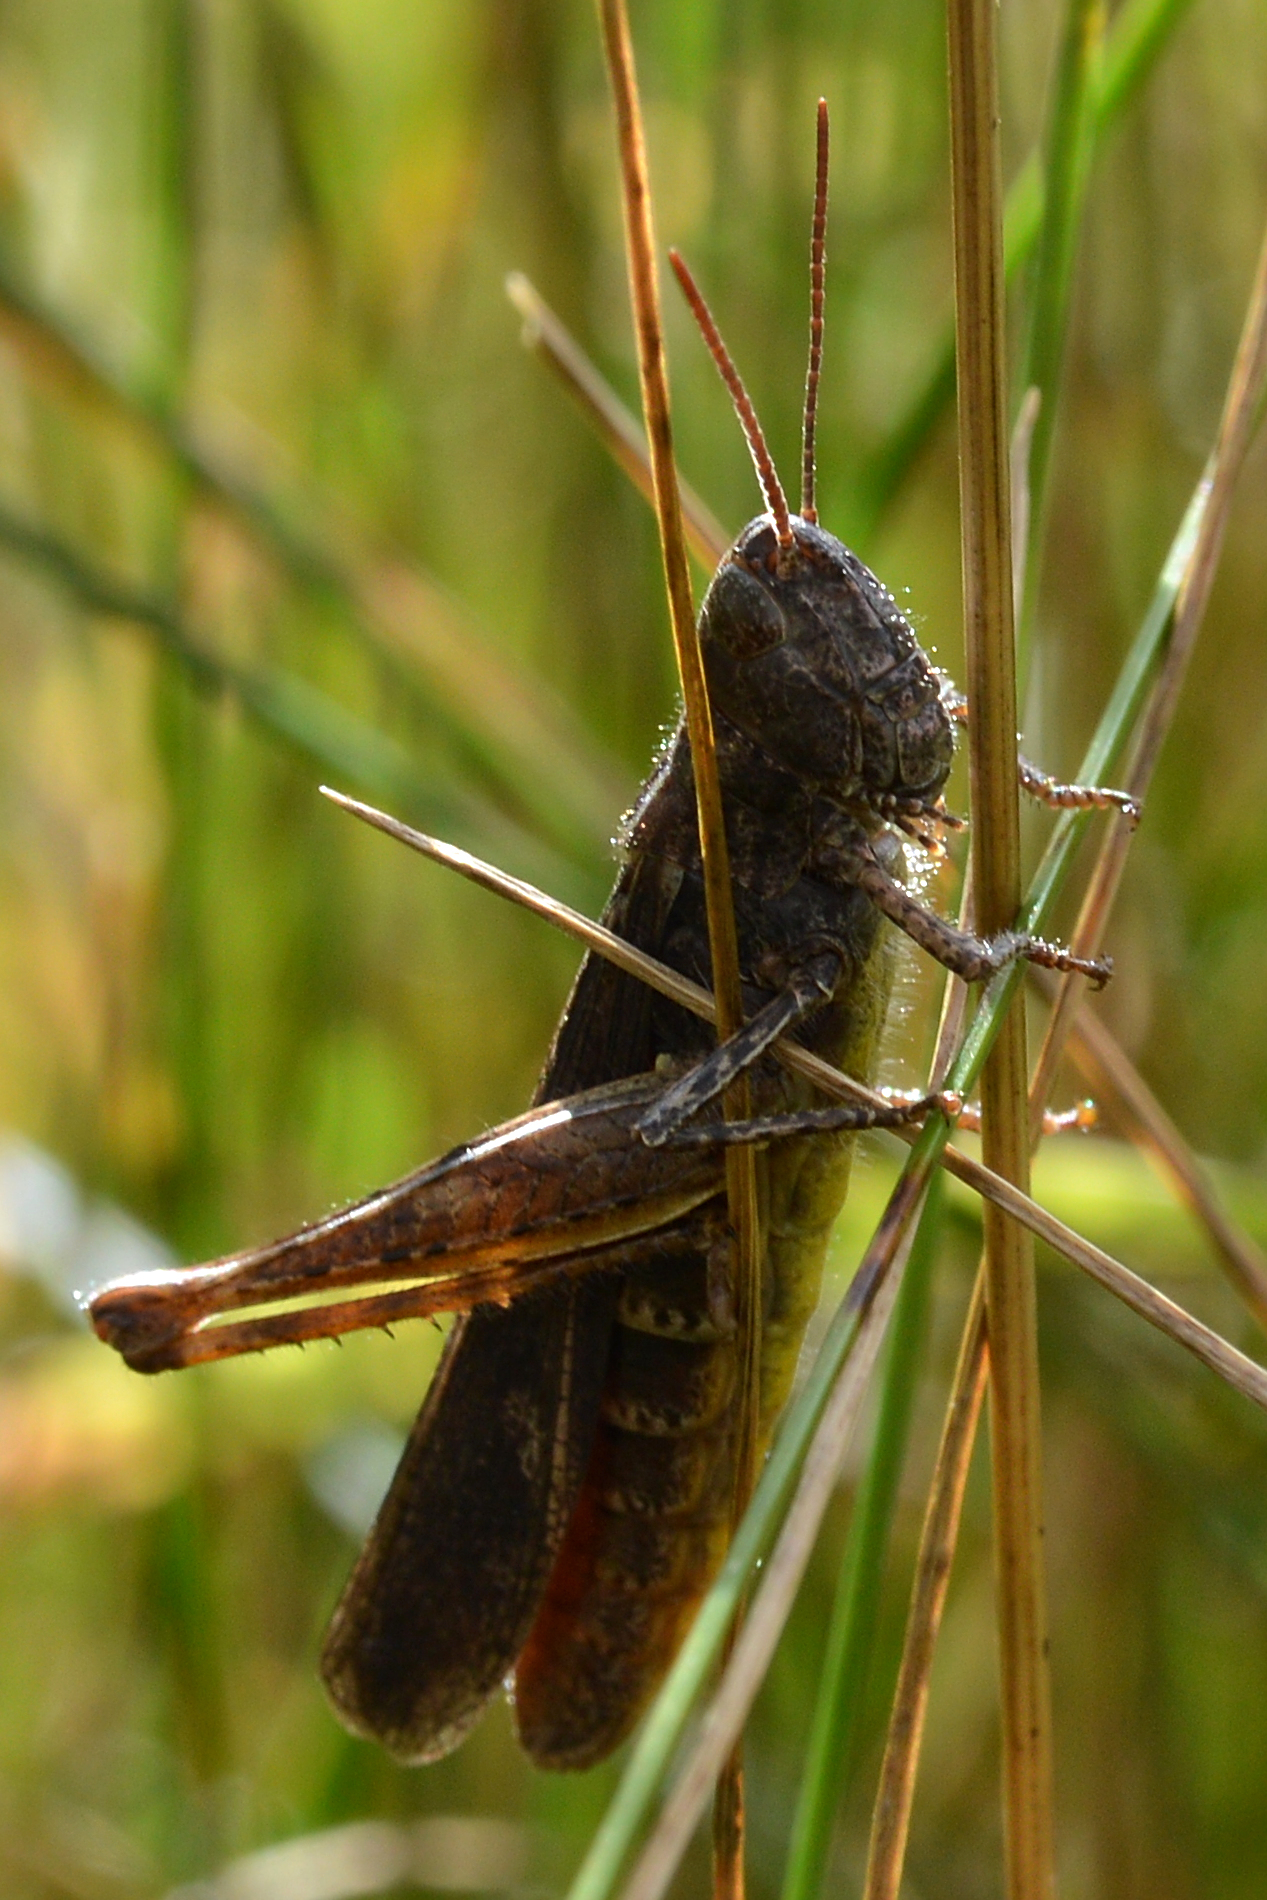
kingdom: Animalia
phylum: Arthropoda
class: Insecta
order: Orthoptera
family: Acrididae
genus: Chorthippus
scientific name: Chorthippus brunneus
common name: Field grasshopper
